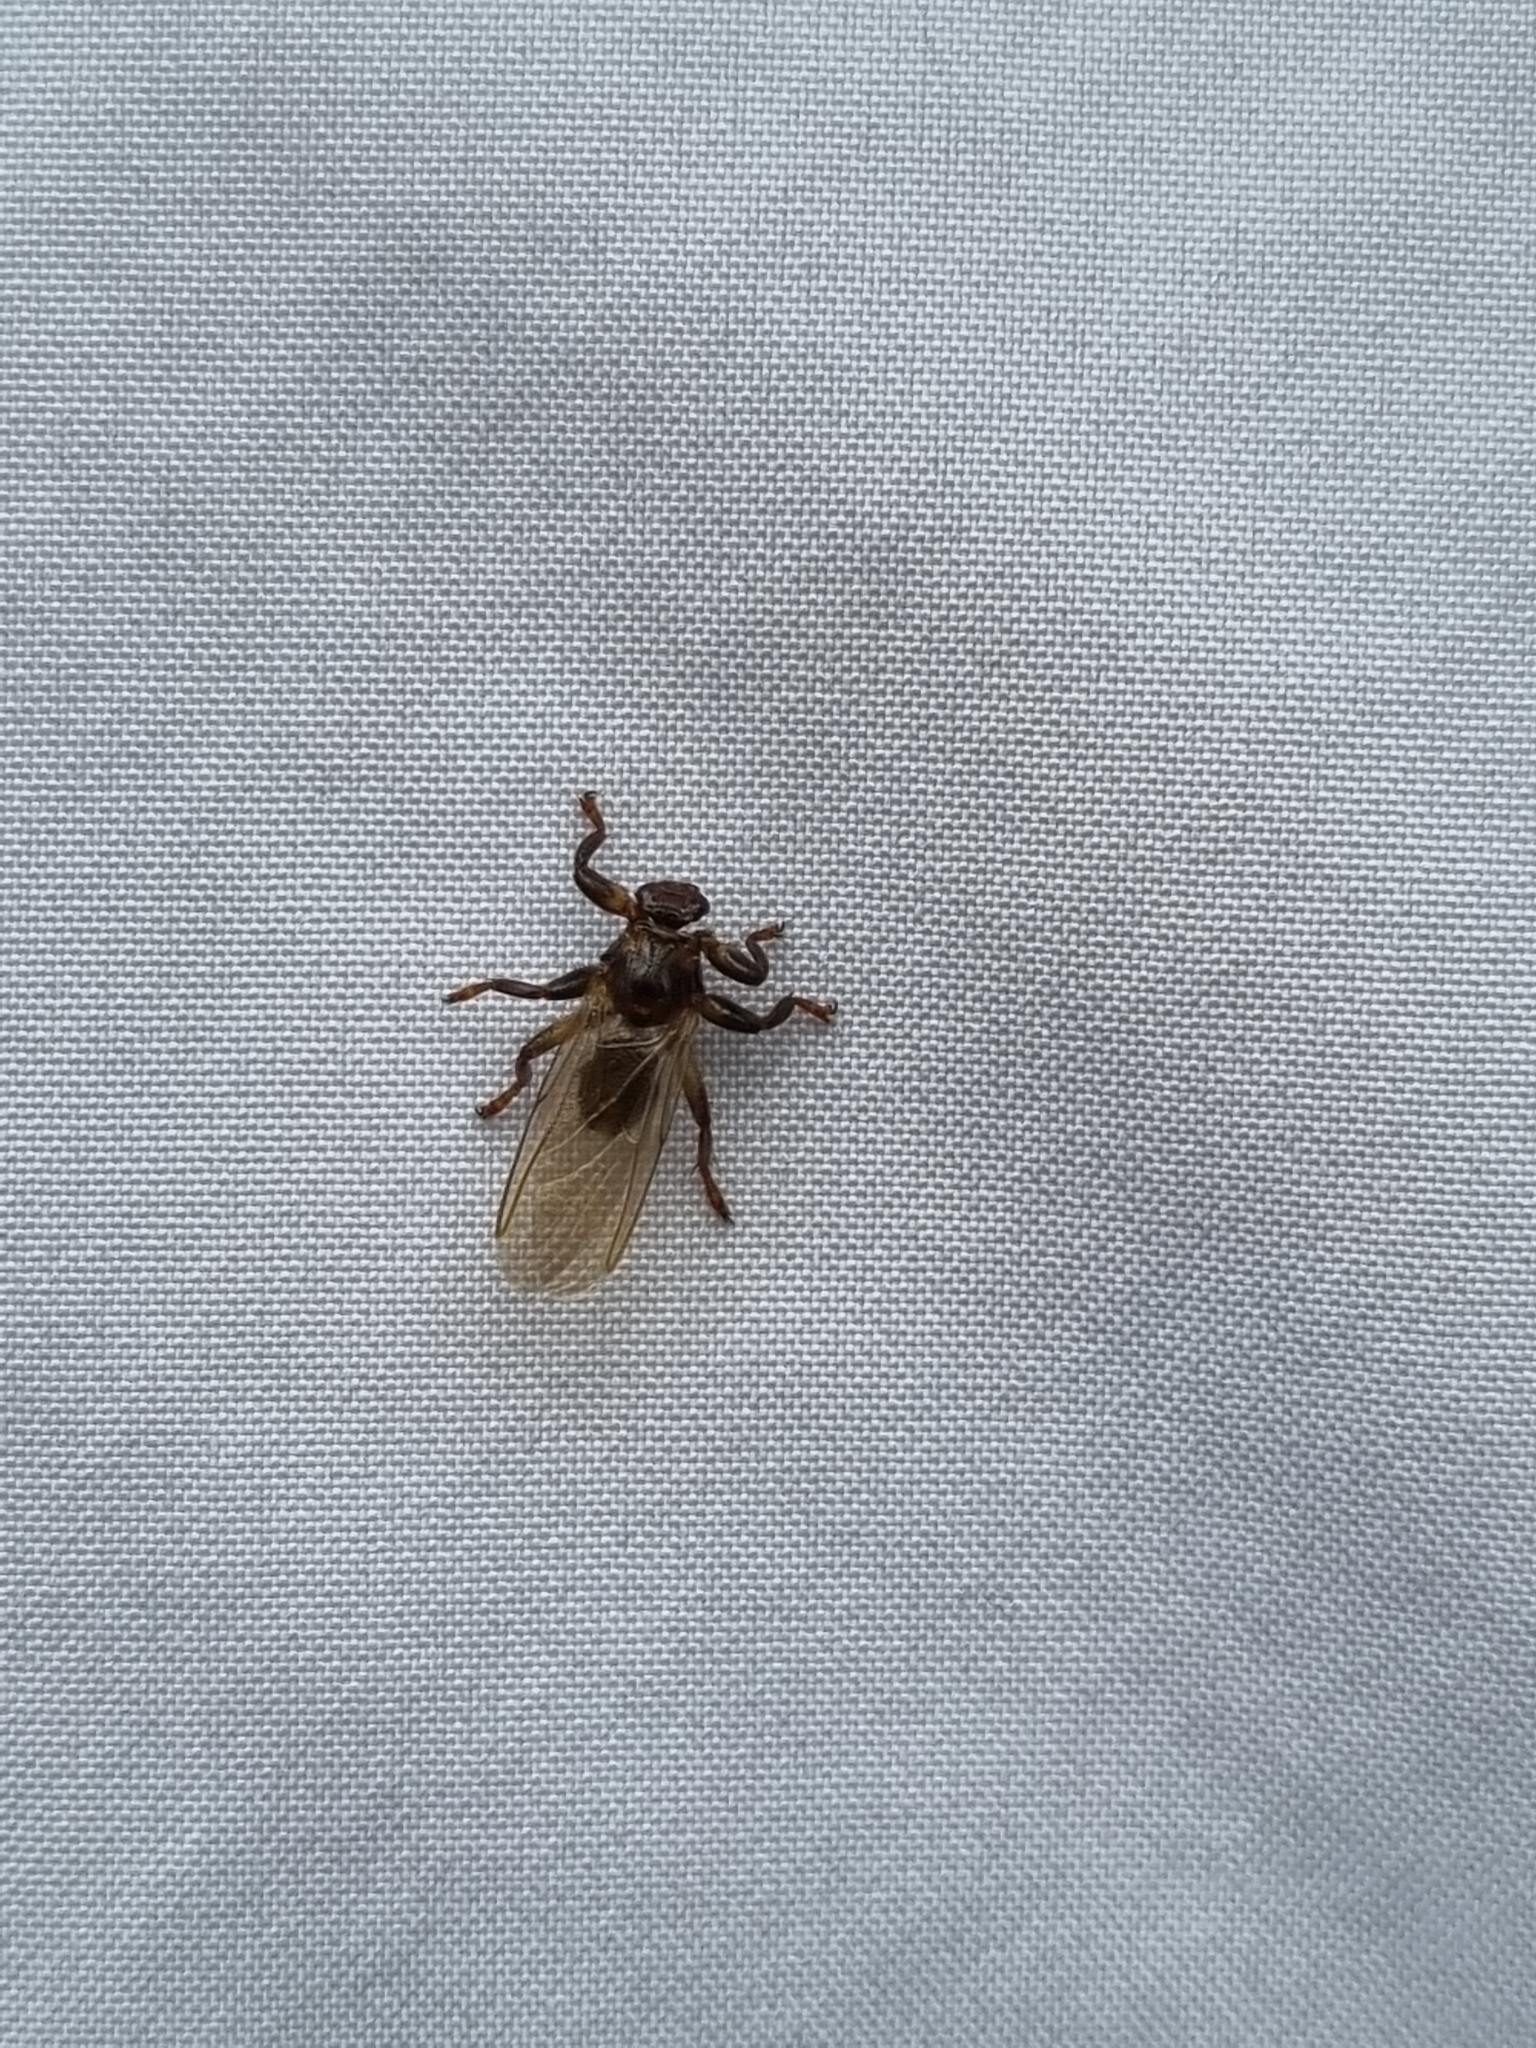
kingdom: Animalia
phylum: Arthropoda
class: Insecta
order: Diptera
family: Hippoboscidae
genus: Lipoptena
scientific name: Lipoptena cervi
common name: Deer ked
